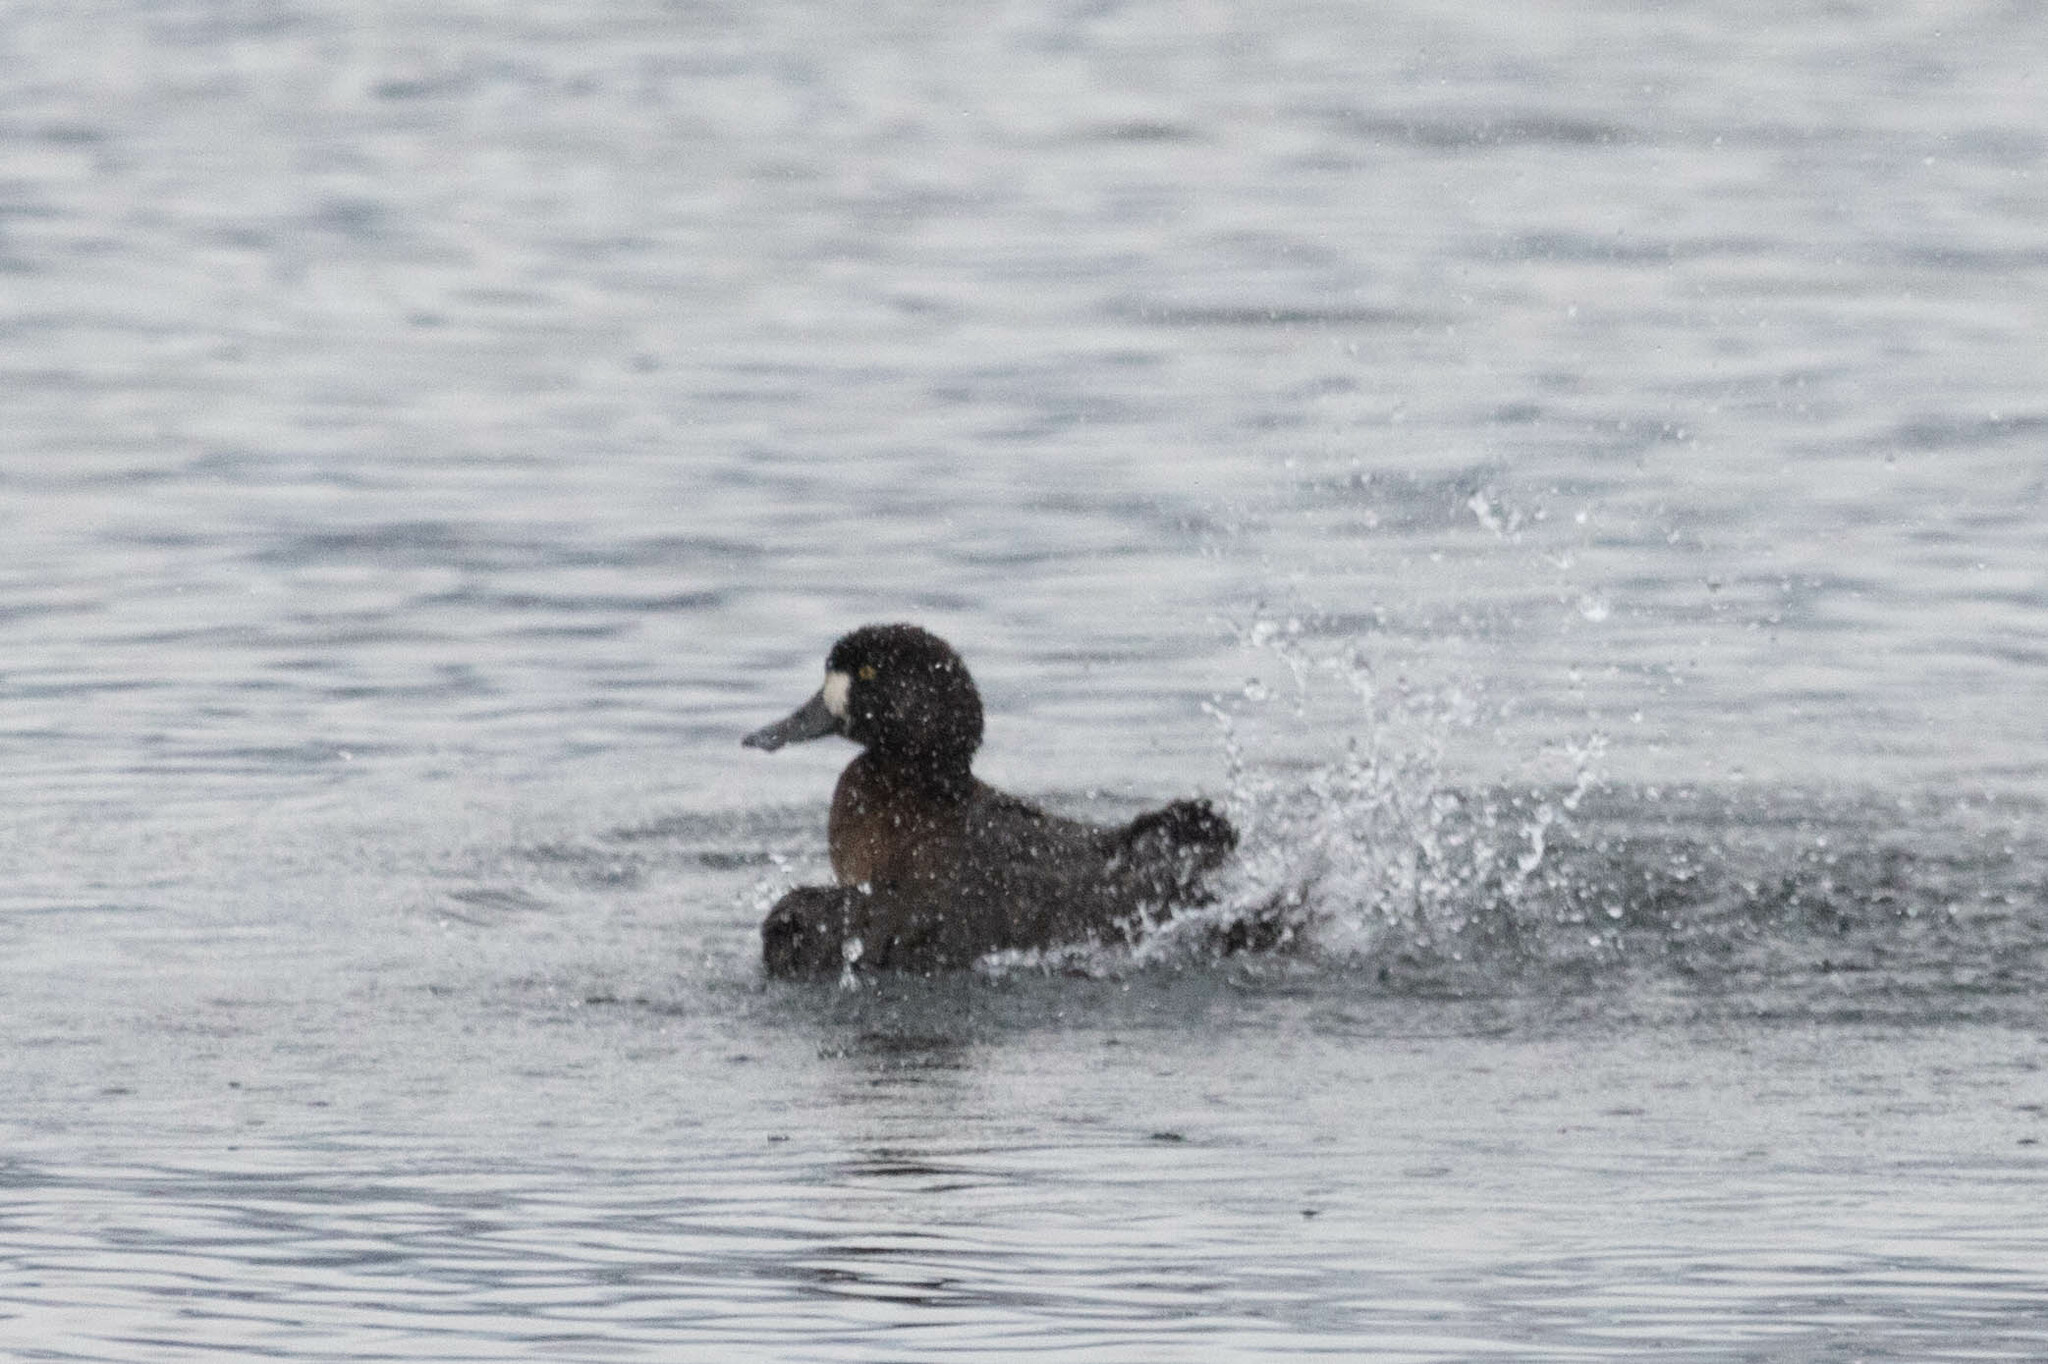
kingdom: Animalia
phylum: Chordata
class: Aves
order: Anseriformes
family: Anatidae
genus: Aythya
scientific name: Aythya marila
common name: Greater scaup
